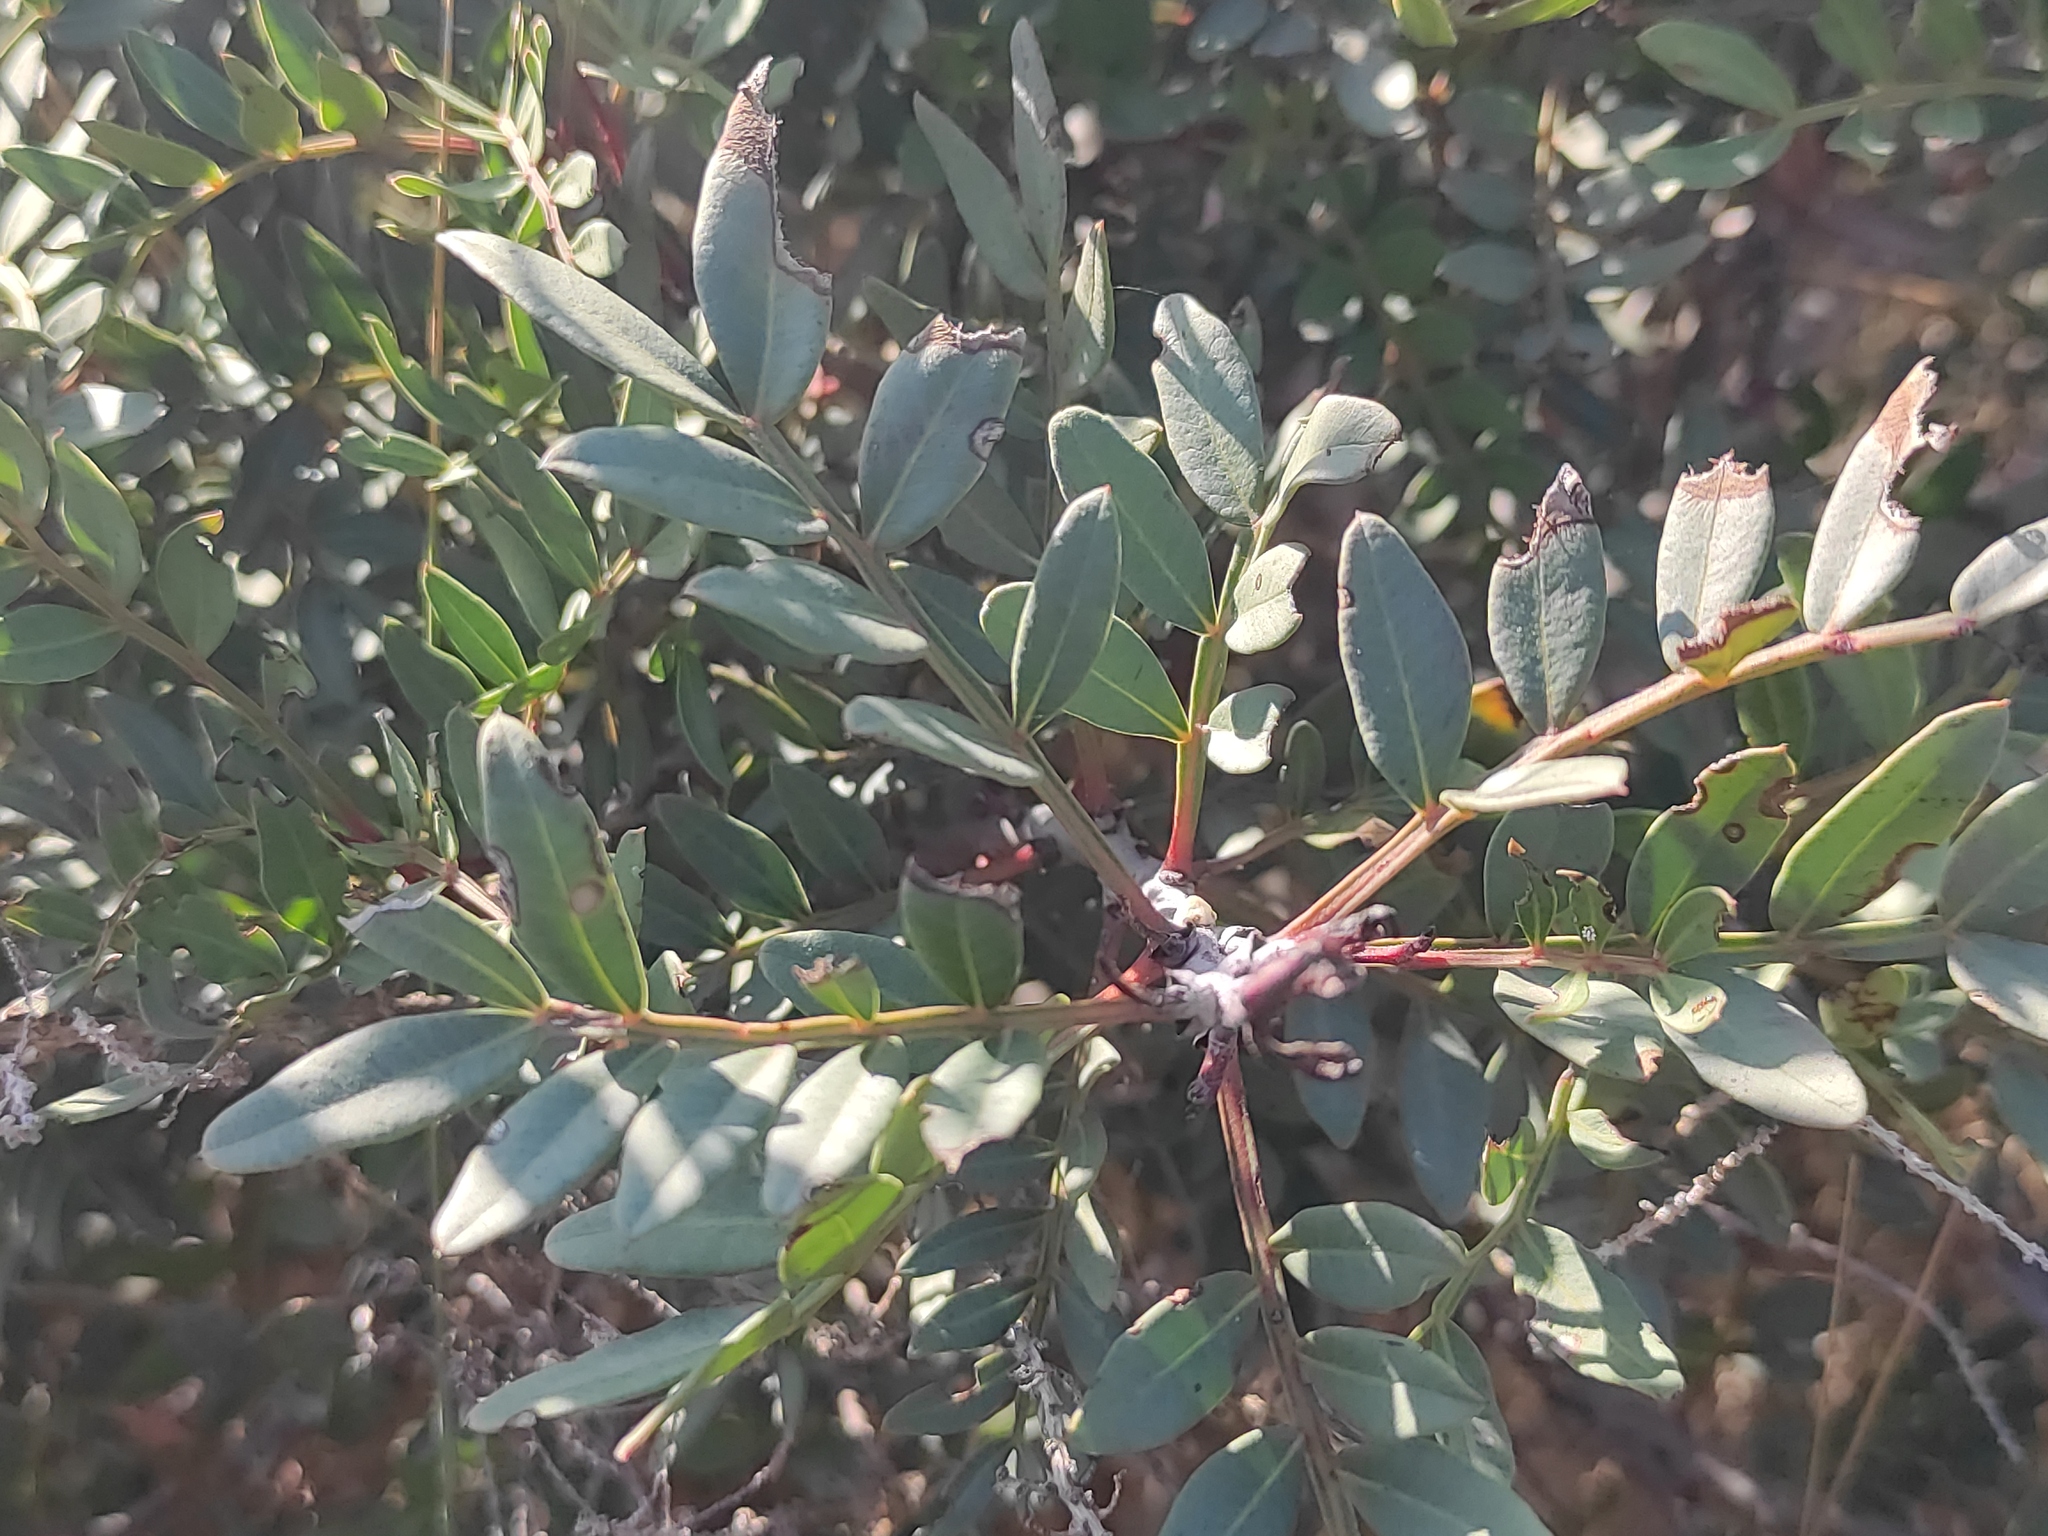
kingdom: Plantae
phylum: Tracheophyta
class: Magnoliopsida
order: Sapindales
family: Anacardiaceae
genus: Pistacia
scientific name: Pistacia lentiscus
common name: Lentisk
